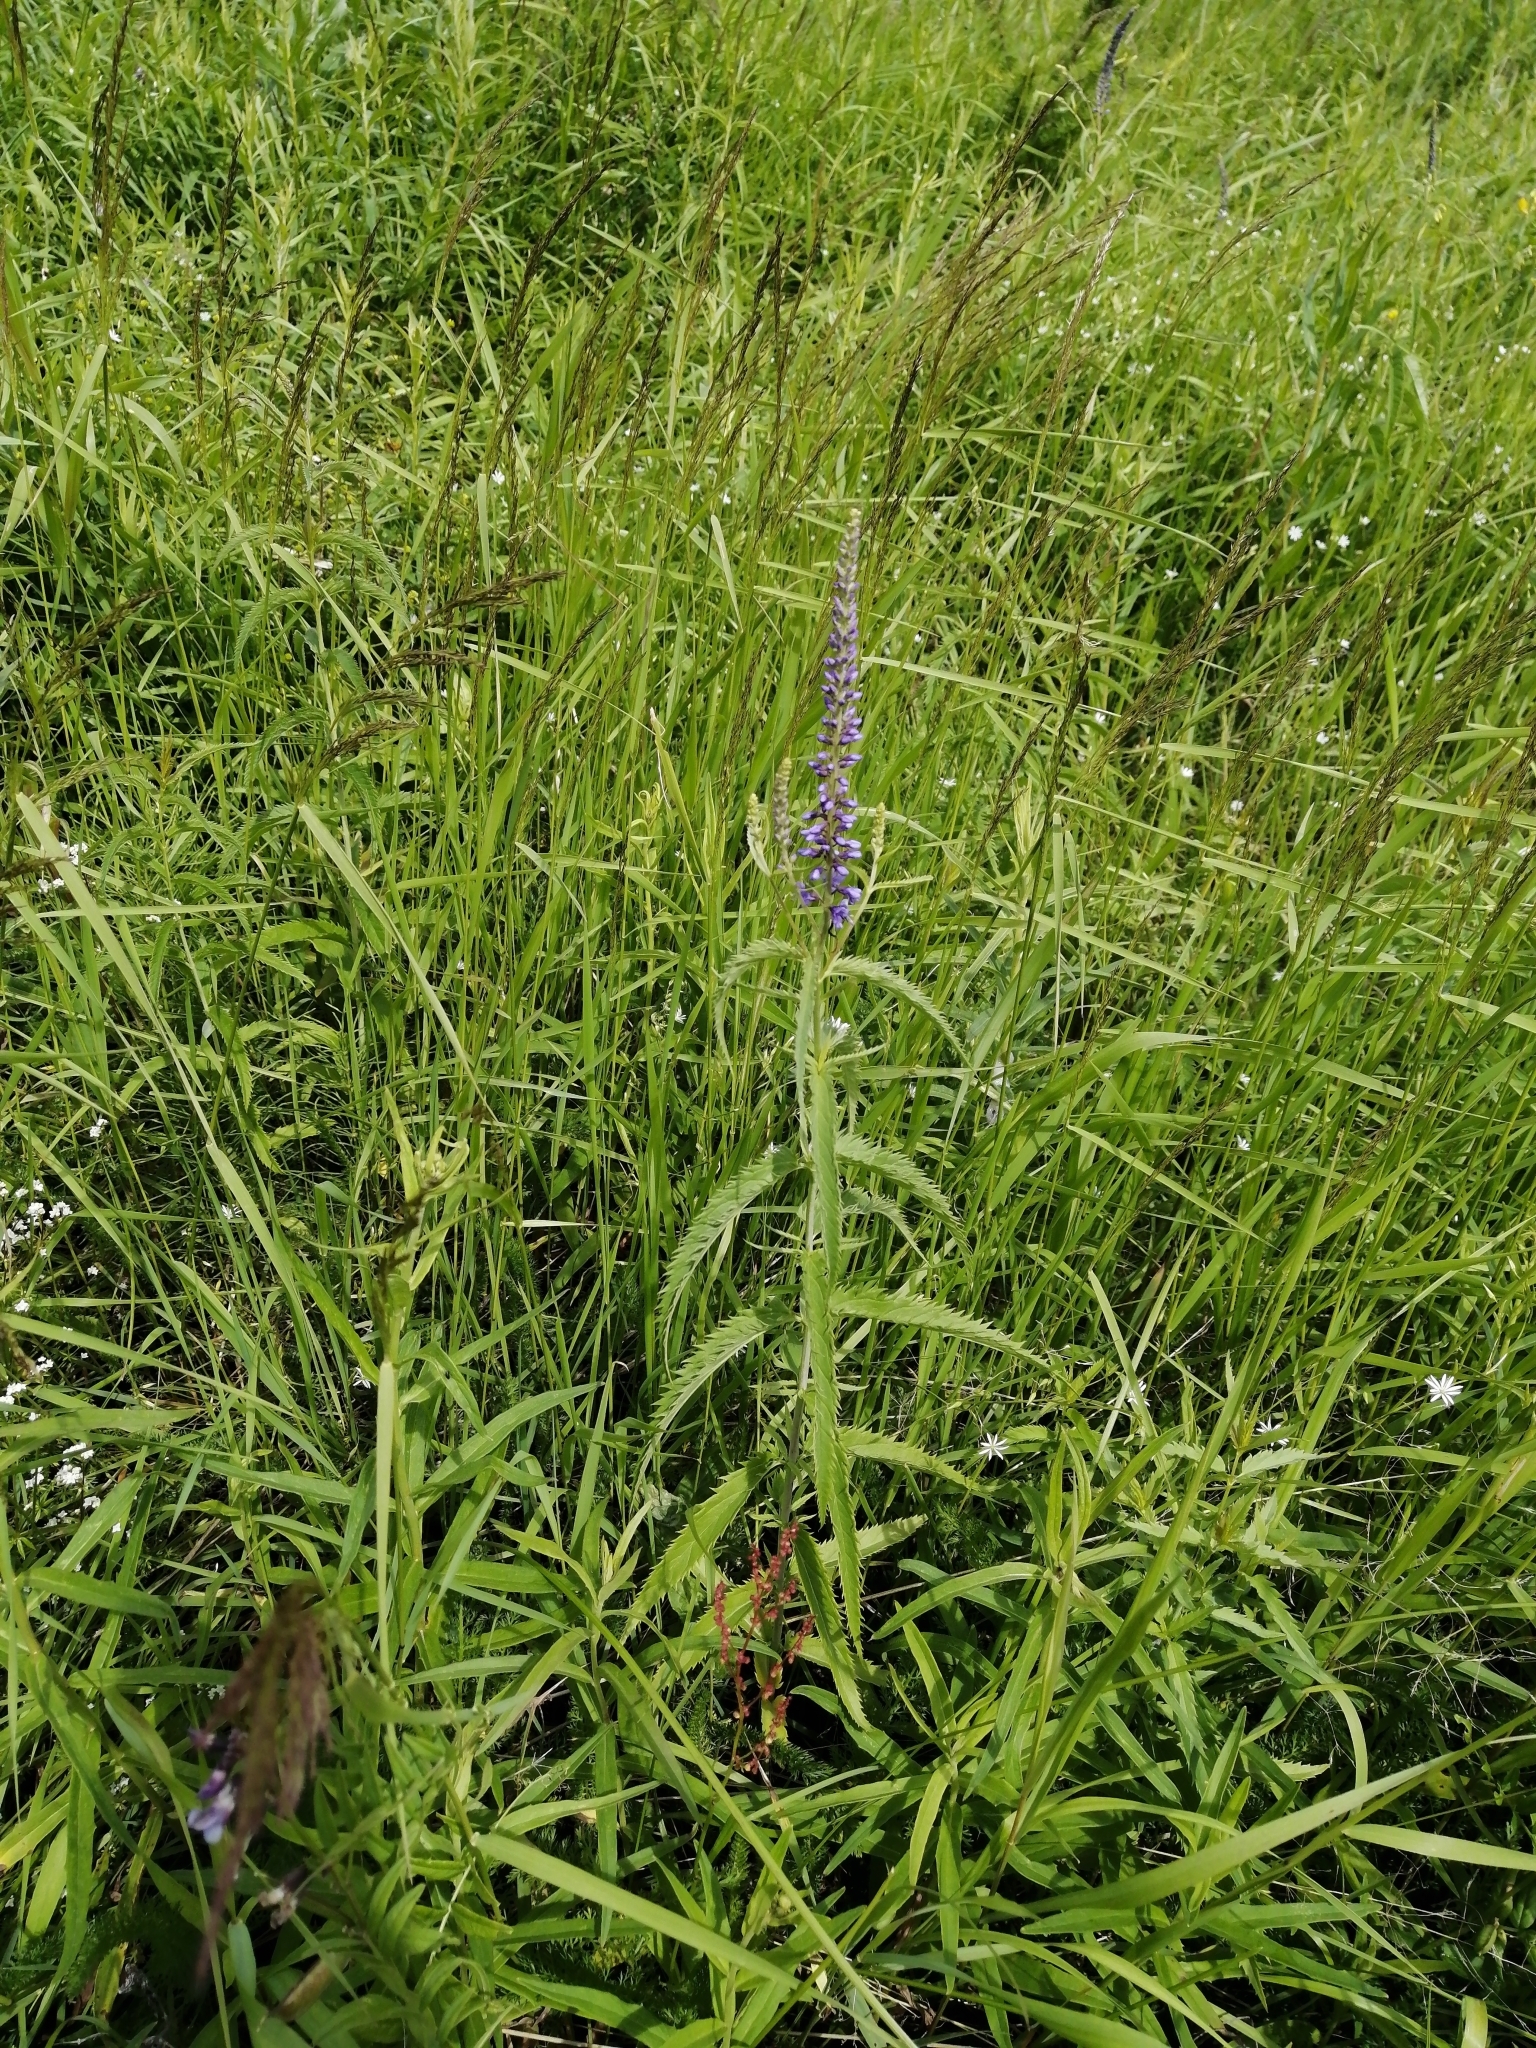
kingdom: Plantae
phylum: Tracheophyta
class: Magnoliopsida
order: Lamiales
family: Plantaginaceae
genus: Veronica
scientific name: Veronica longifolia
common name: Garden speedwell
